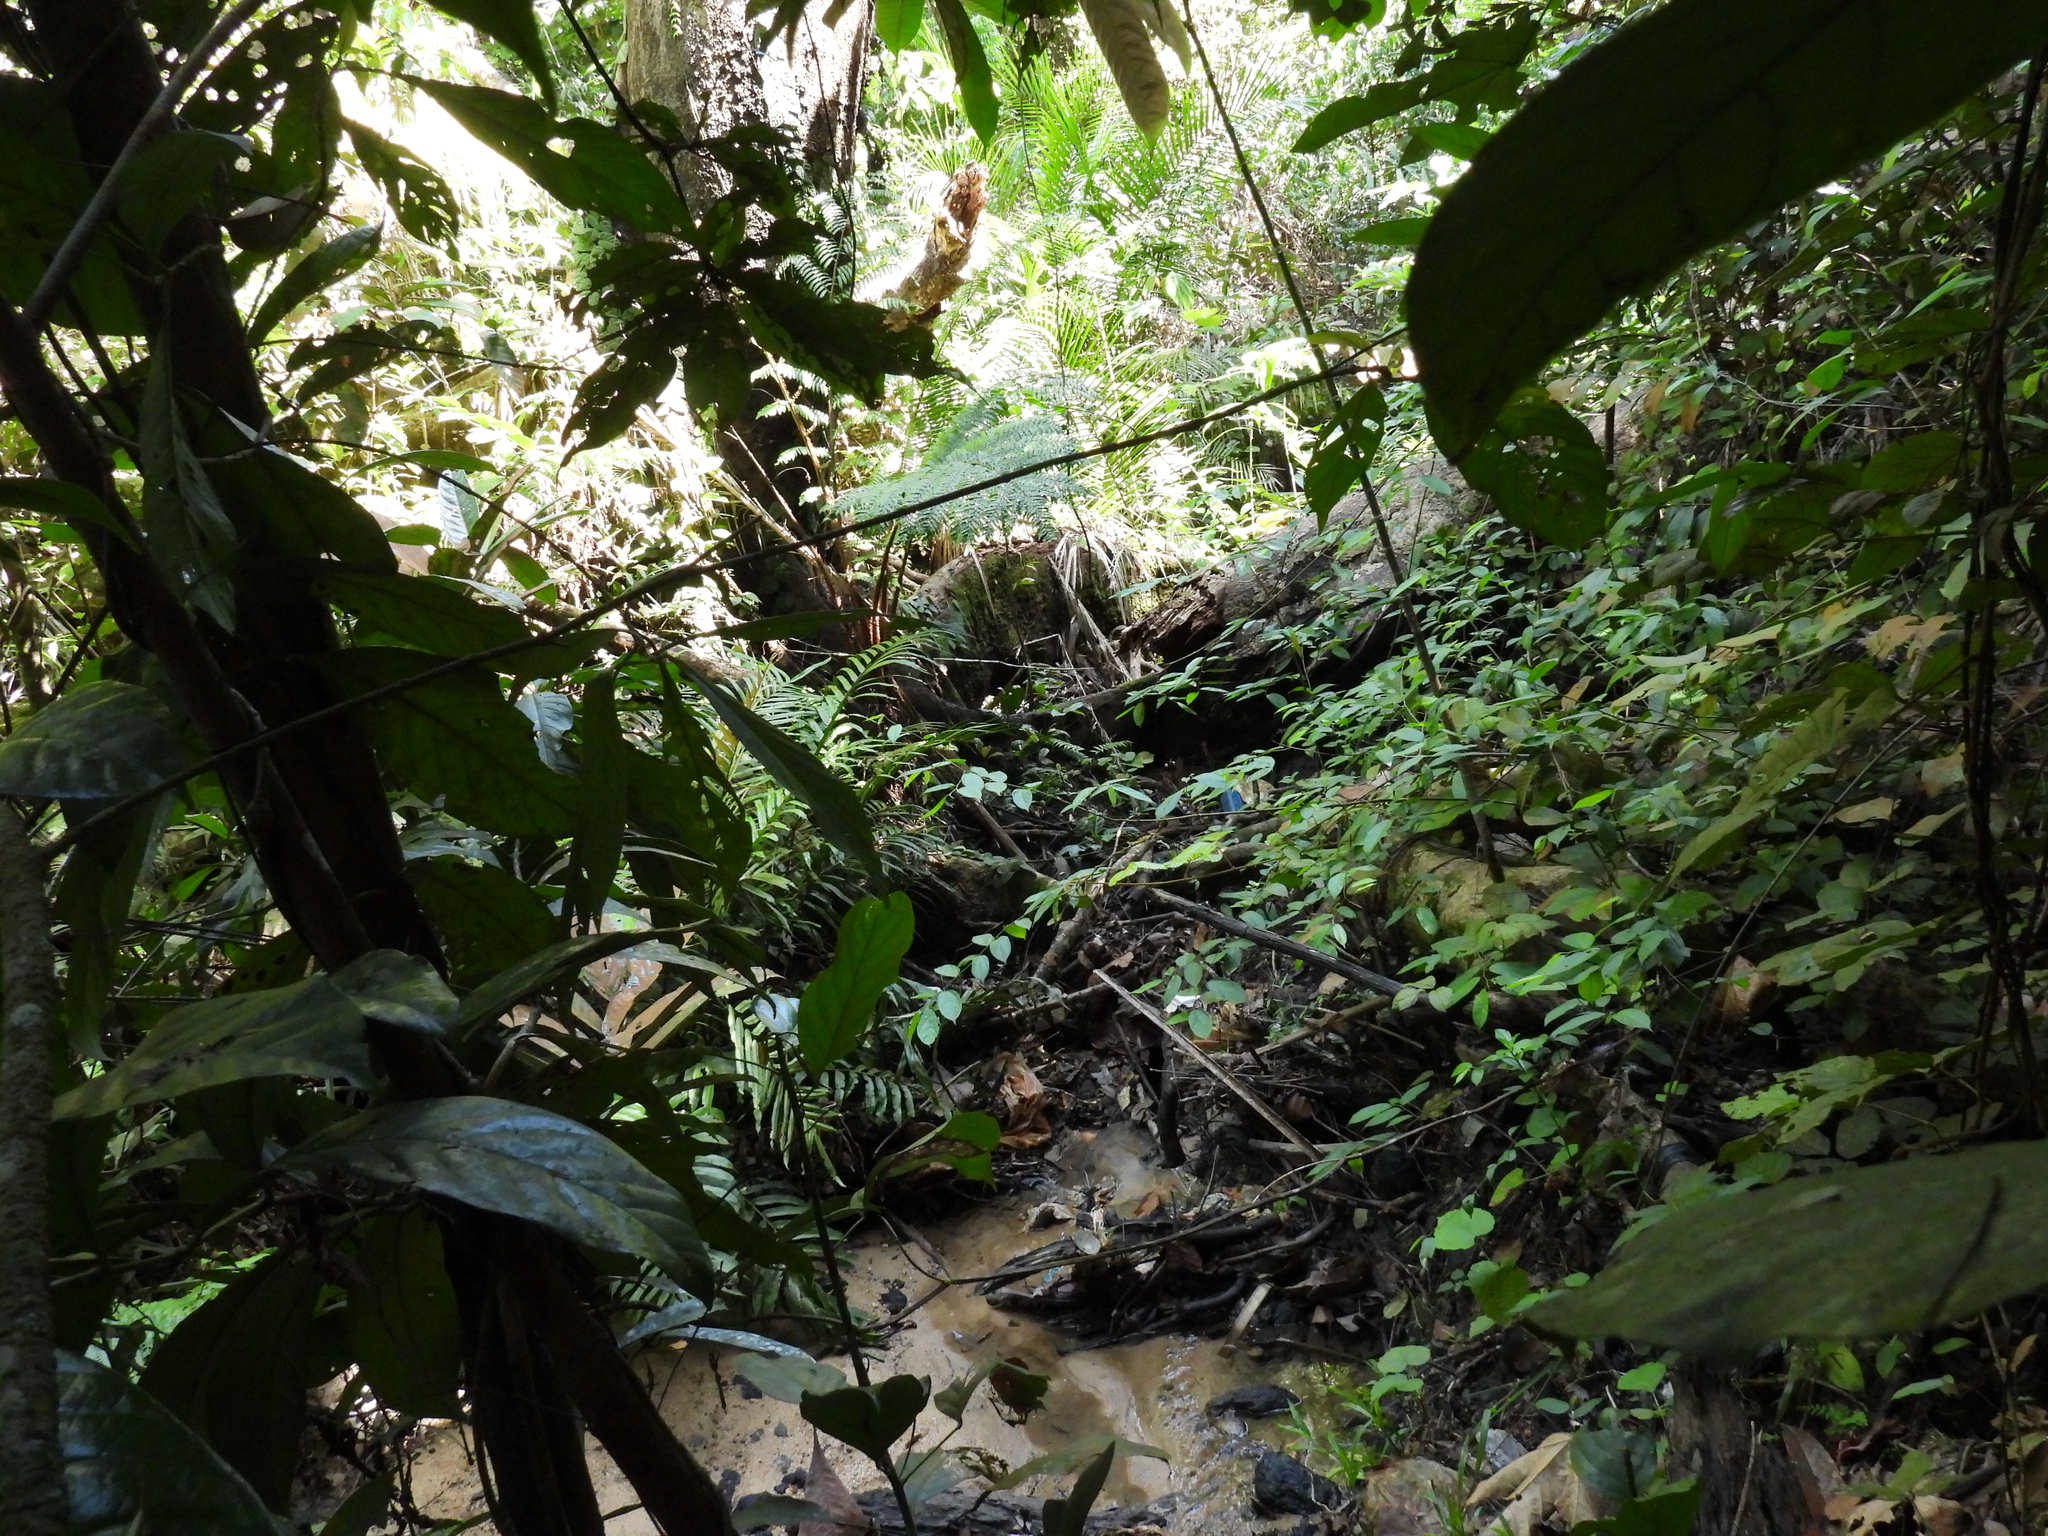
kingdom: Plantae
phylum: Tracheophyta
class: Polypodiopsida
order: Cyatheales
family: Cyatheaceae
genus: Sphaeropteris
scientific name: Sphaeropteris squamulata
